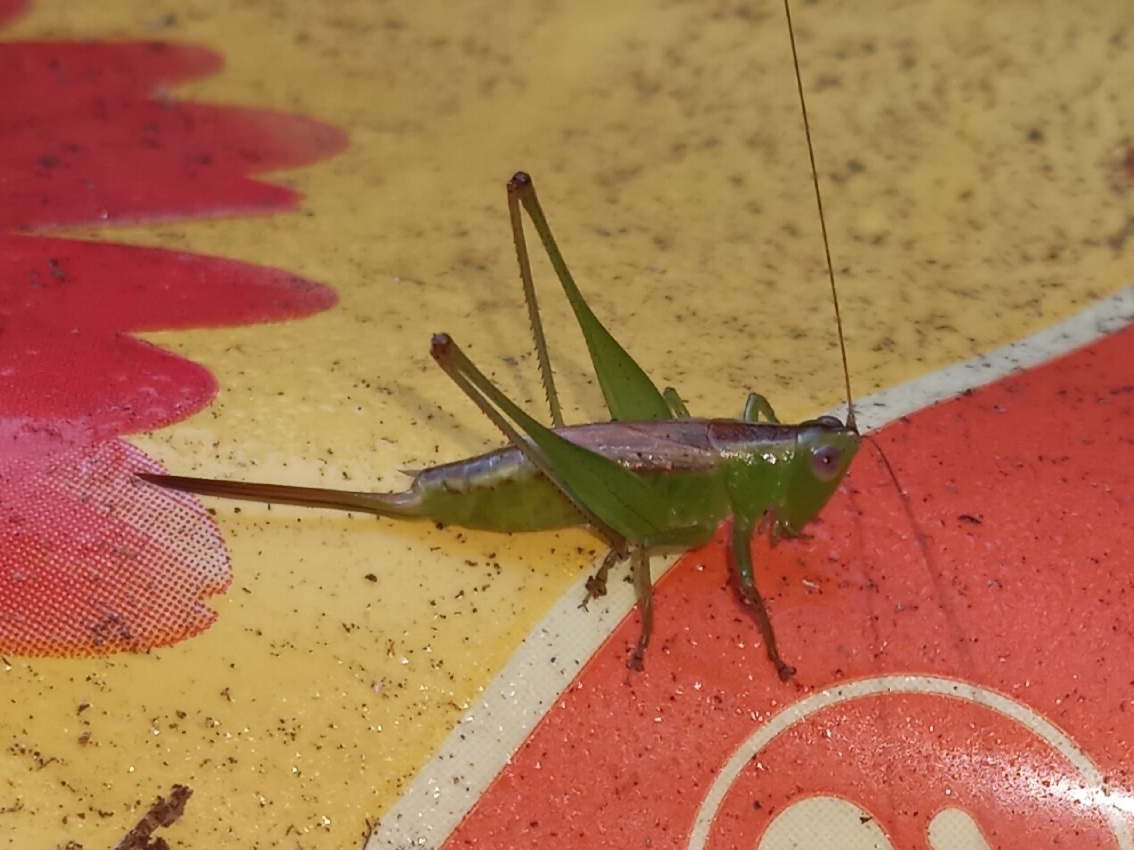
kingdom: Animalia
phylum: Arthropoda
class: Insecta
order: Orthoptera
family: Tettigoniidae
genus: Conocephalus
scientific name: Conocephalus brevipennis
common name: Short-winged meadow katydid
